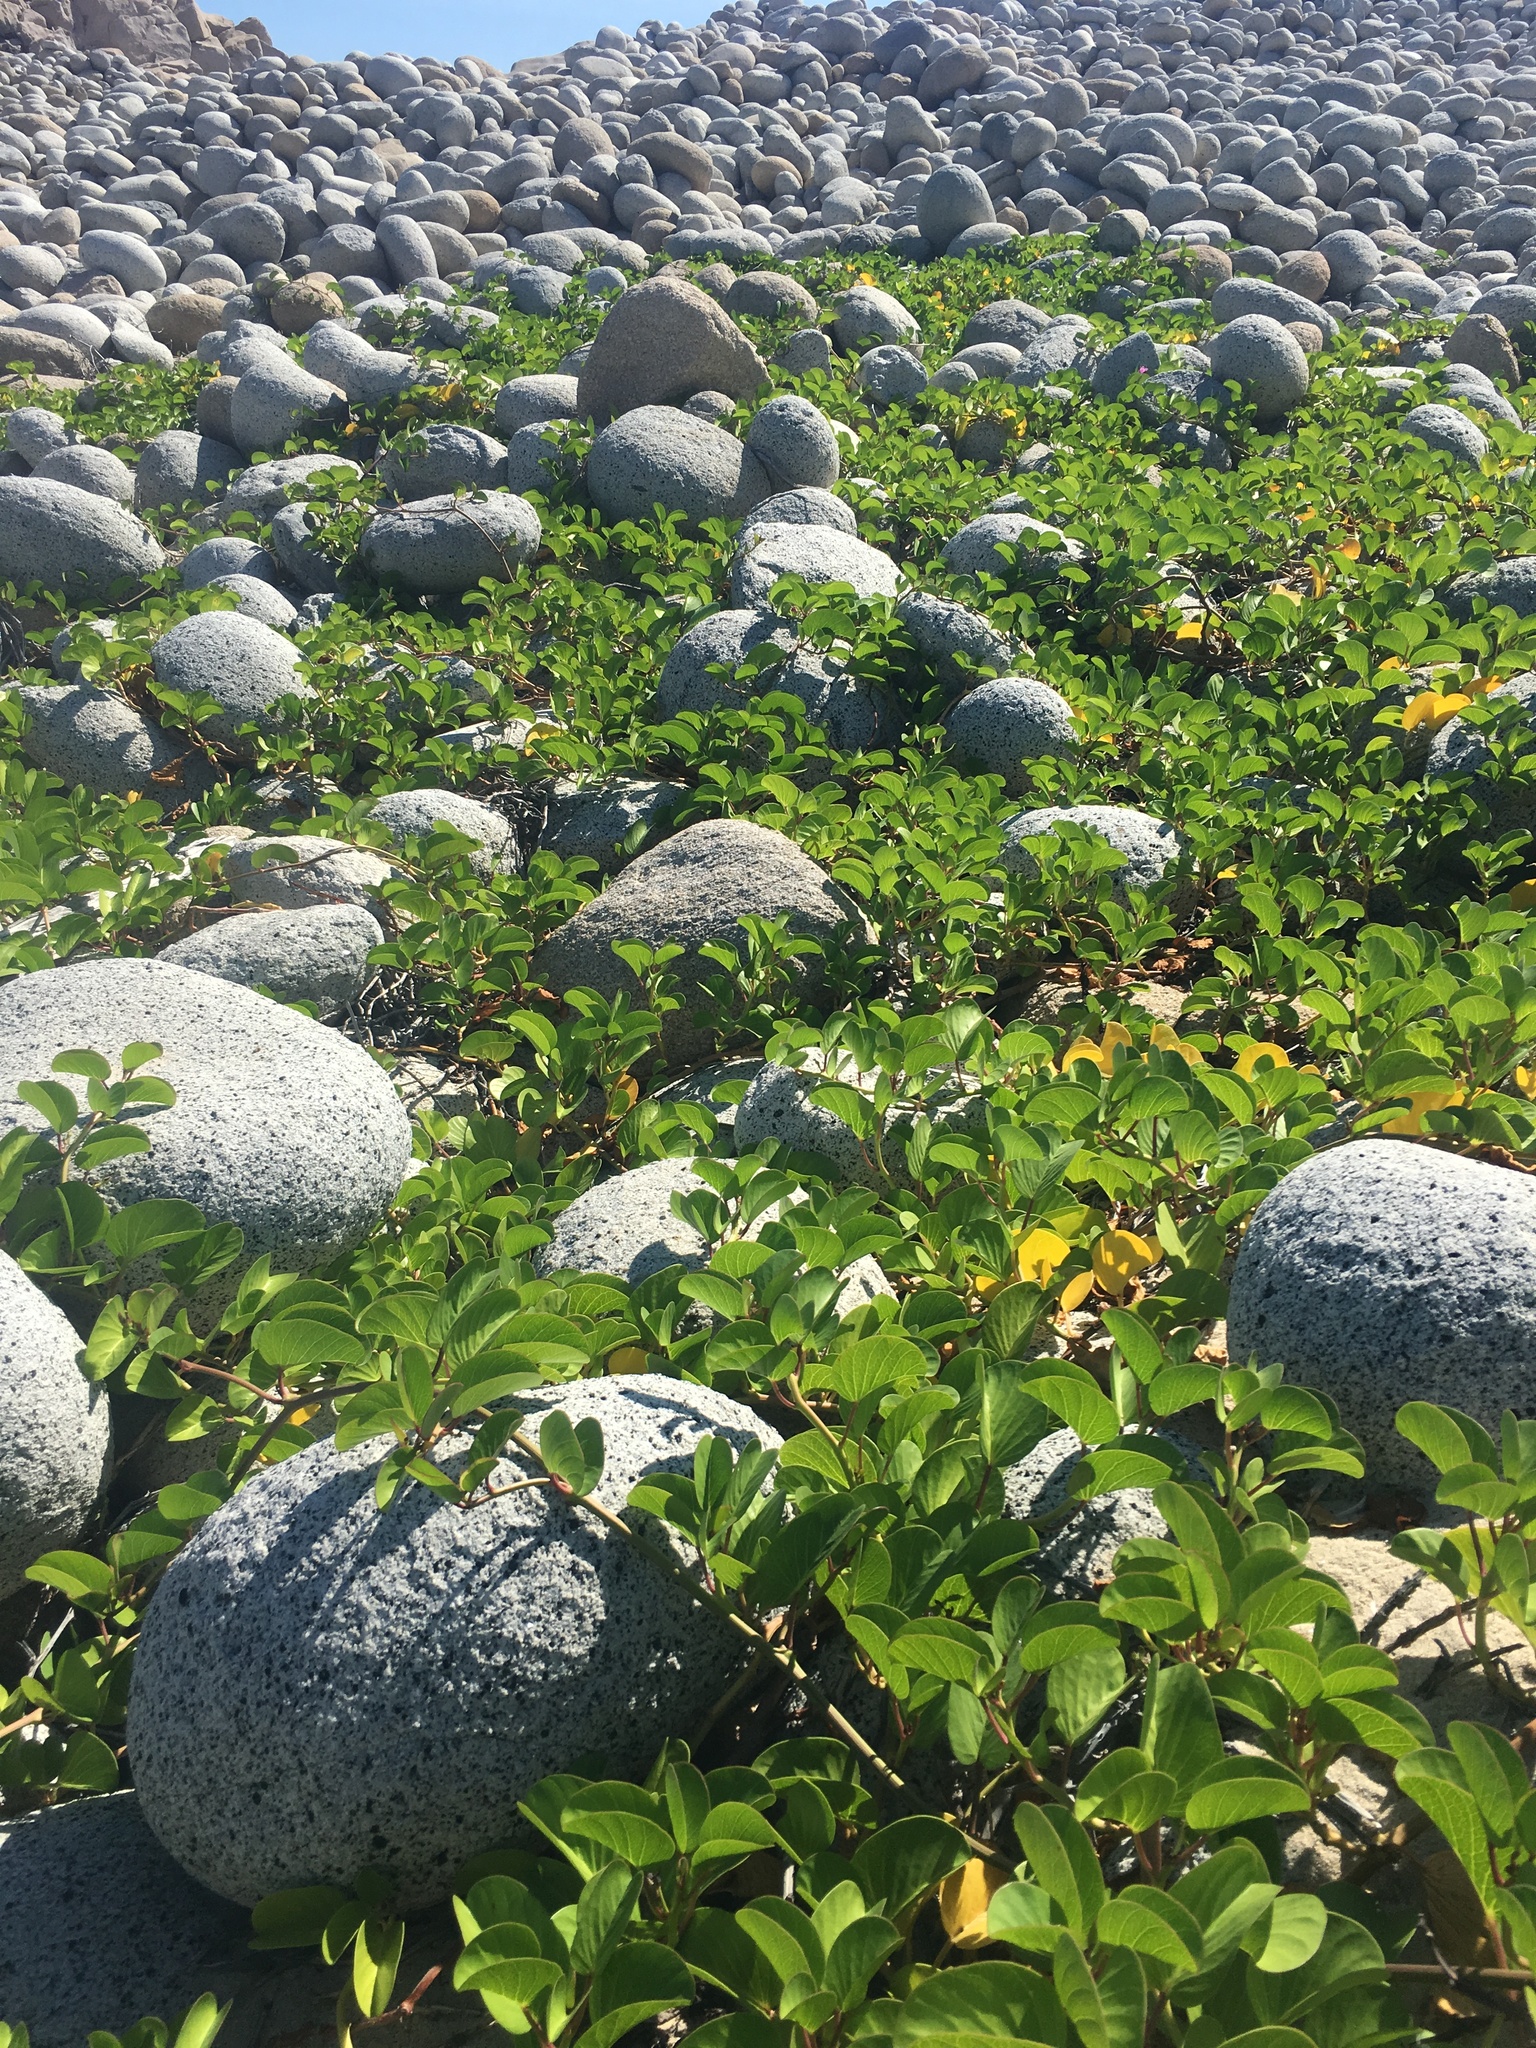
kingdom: Plantae
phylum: Tracheophyta
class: Magnoliopsida
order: Solanales
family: Convolvulaceae
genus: Ipomoea
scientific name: Ipomoea pes-caprae
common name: Beach morning glory
